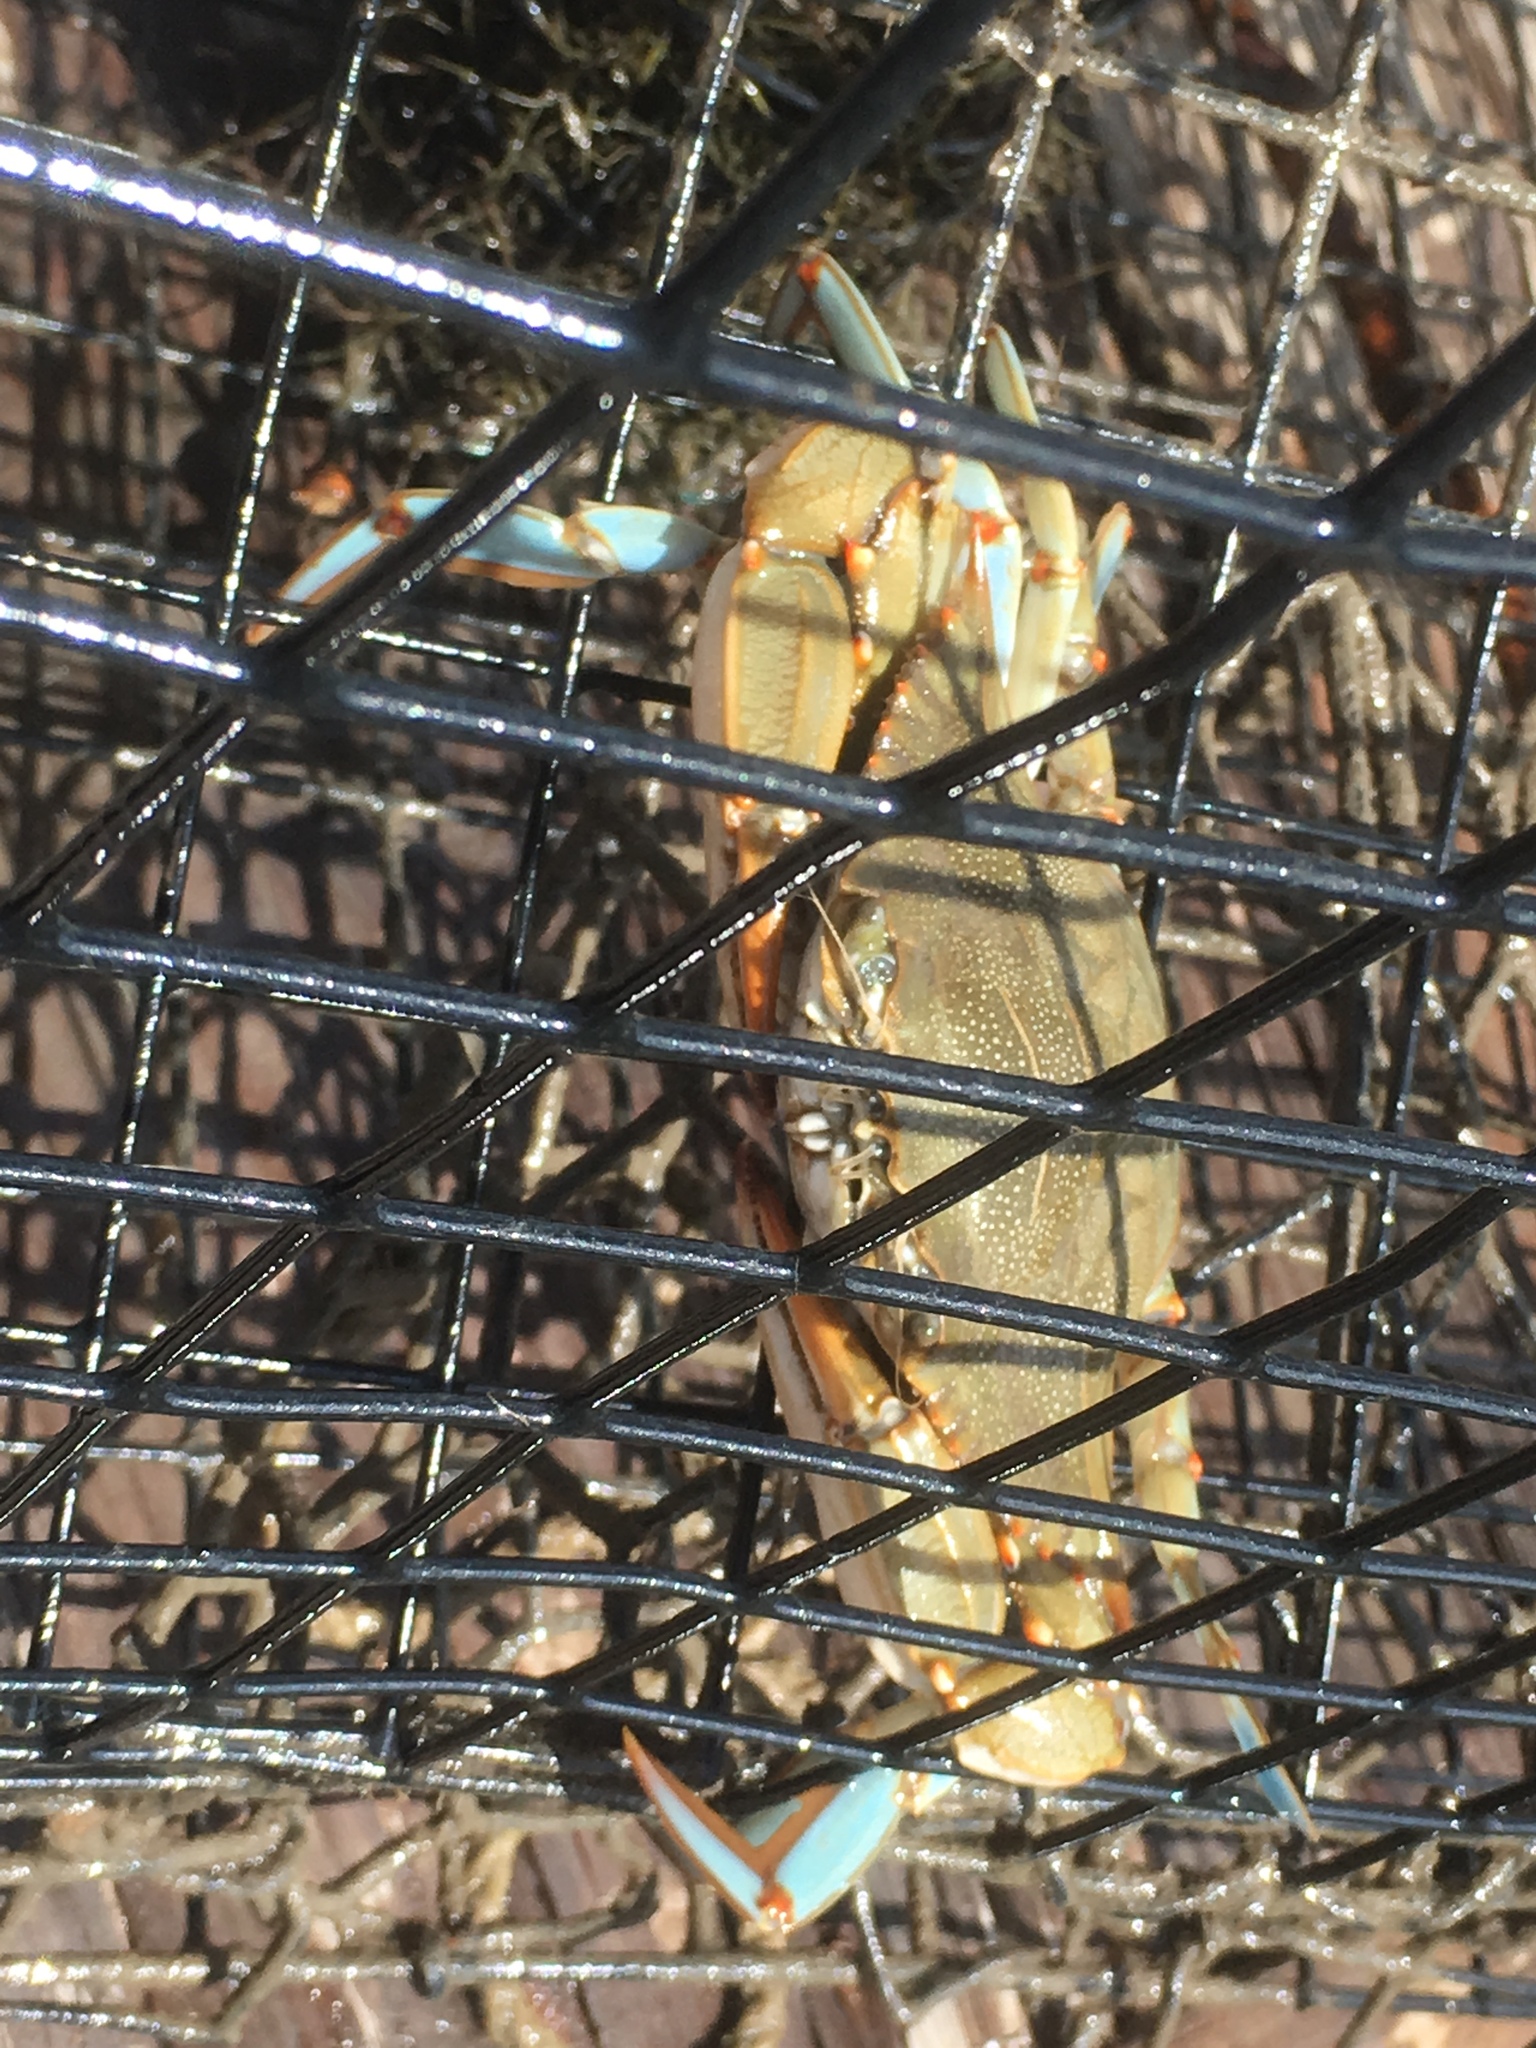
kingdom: Animalia
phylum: Arthropoda
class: Malacostraca
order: Decapoda
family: Portunidae
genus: Callinectes
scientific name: Callinectes sapidus
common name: Blue crab
